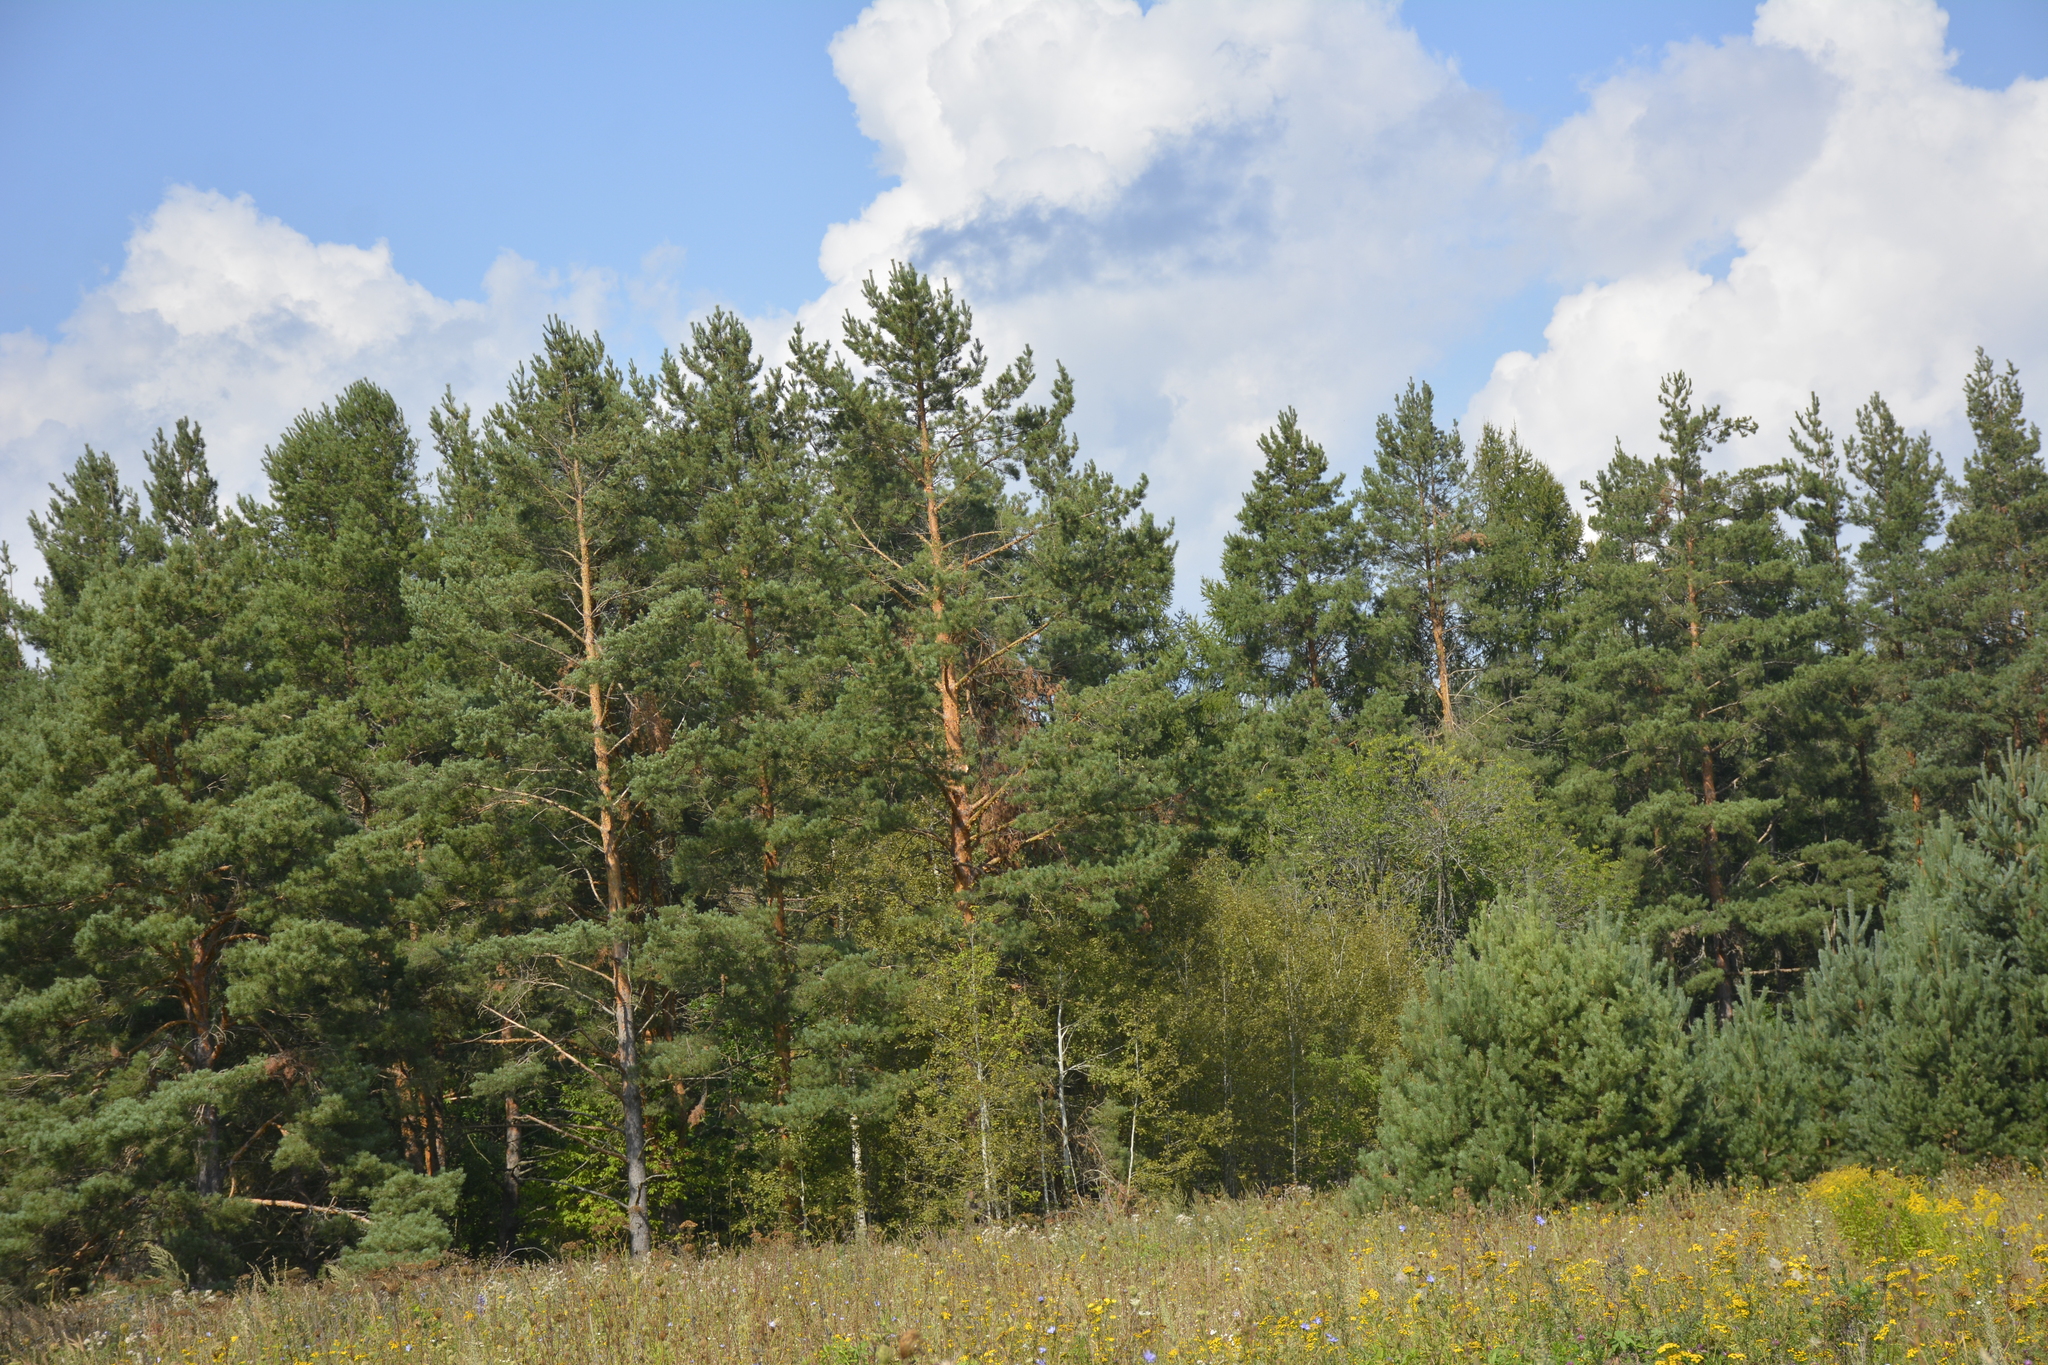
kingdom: Plantae
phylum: Tracheophyta
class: Pinopsida
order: Pinales
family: Pinaceae
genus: Pinus
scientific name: Pinus sylvestris
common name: Scots pine
